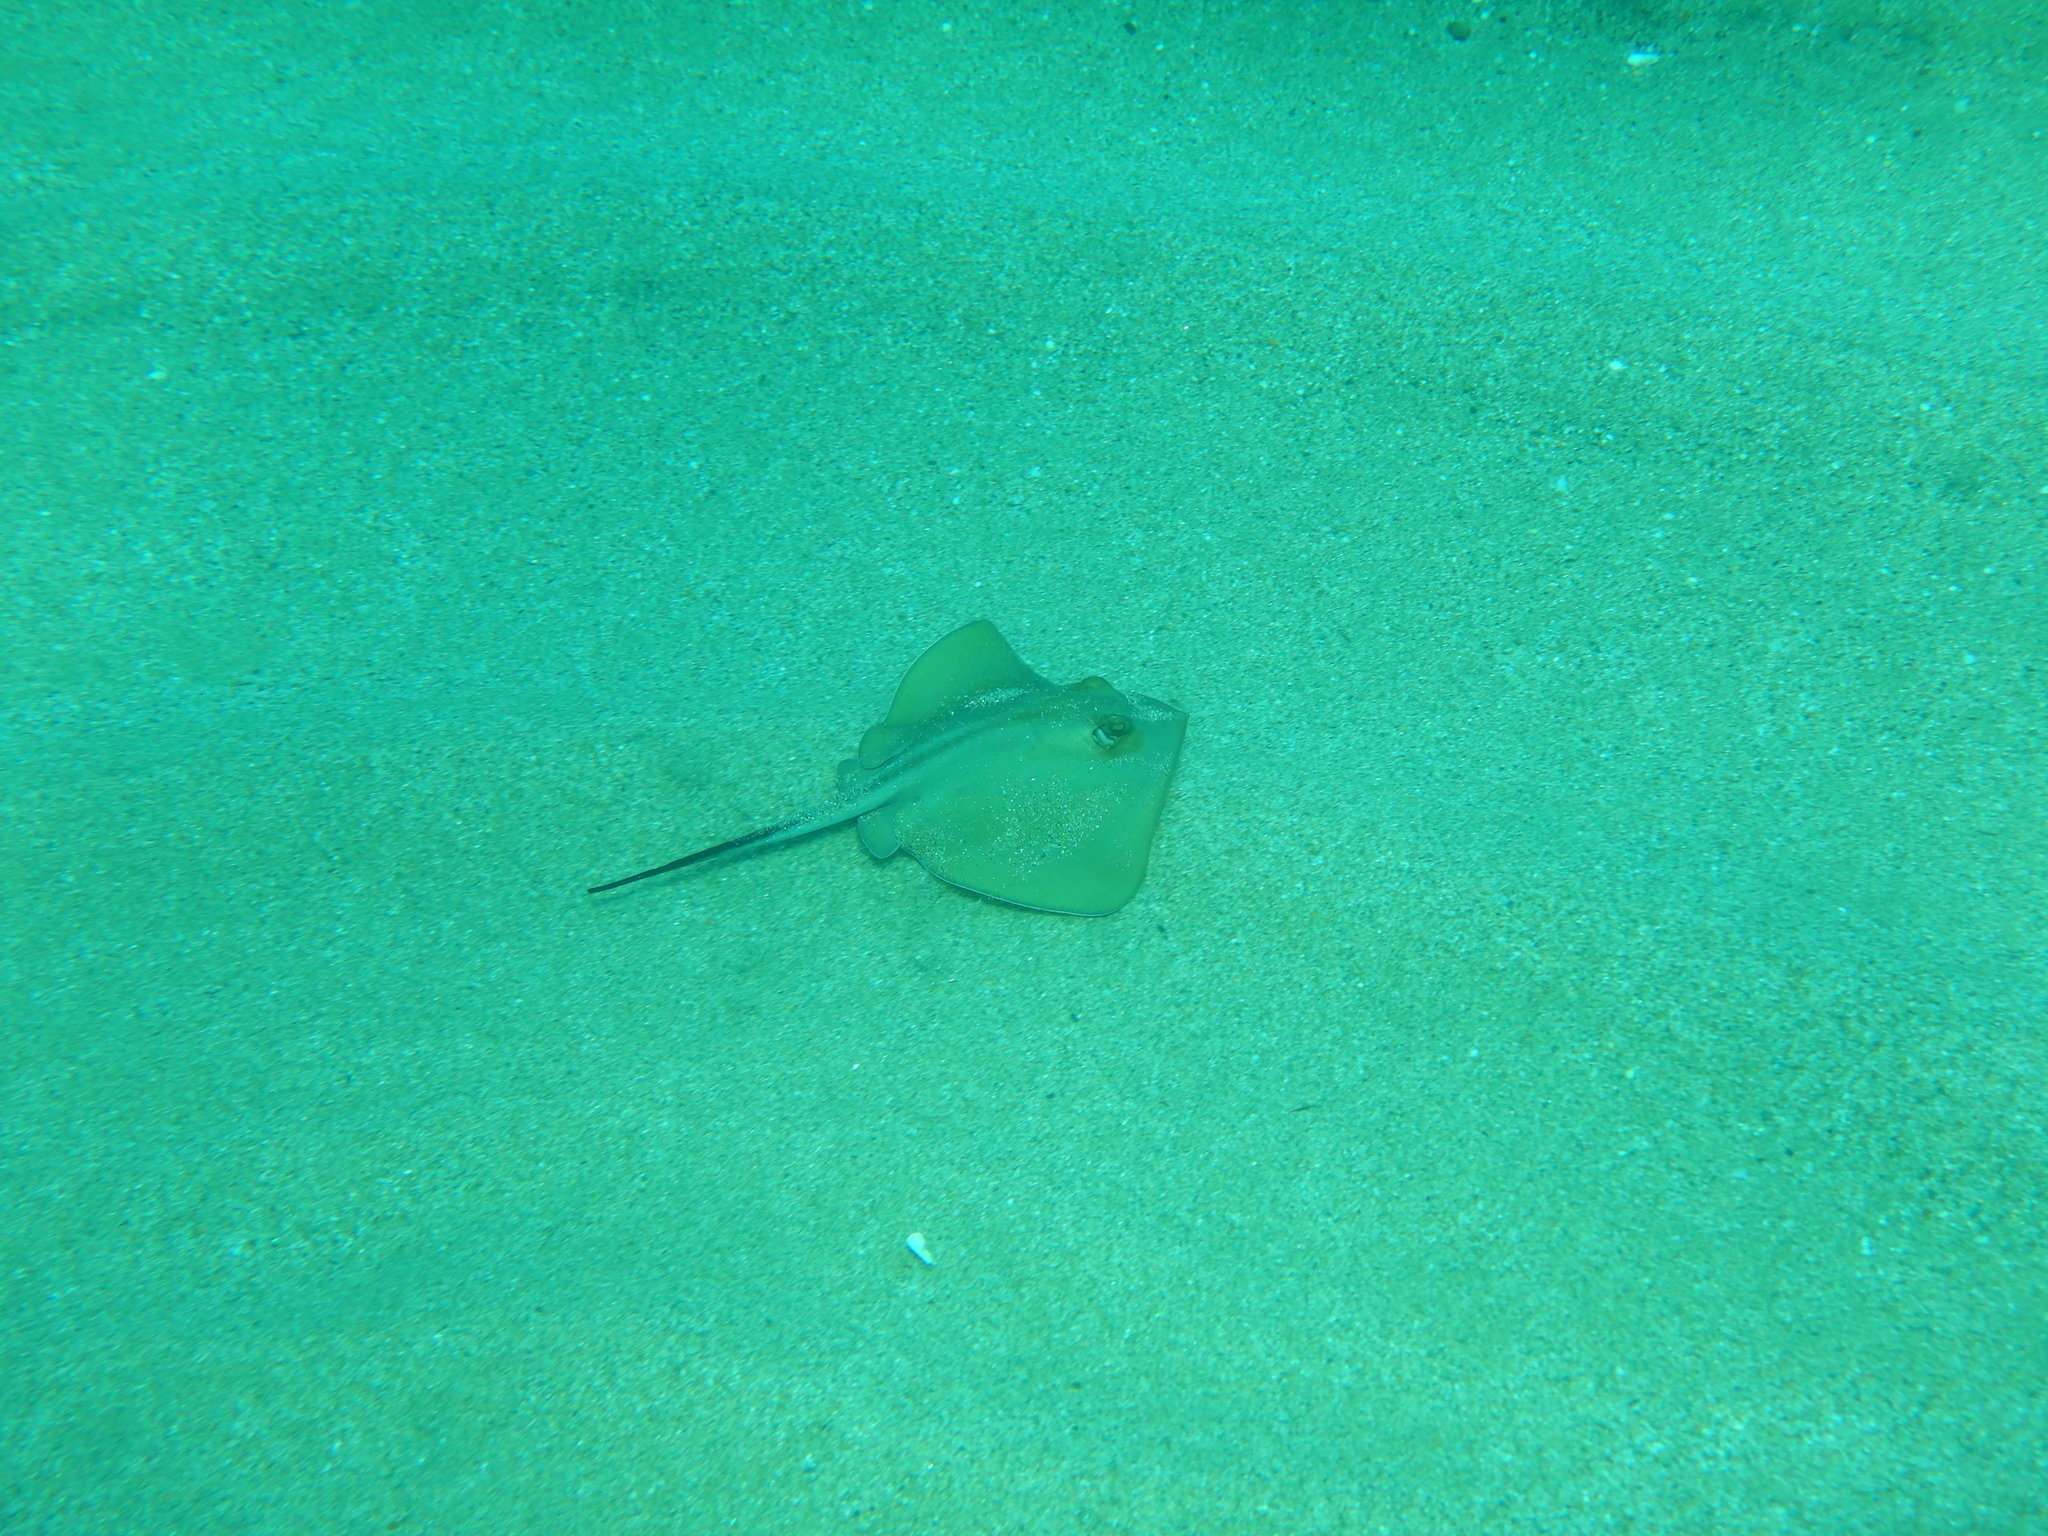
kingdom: Animalia
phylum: Chordata
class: Elasmobranchii
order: Myliobatiformes
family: Dasyatidae
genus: Dasyatis
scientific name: Dasyatis pastinaca
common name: Common stingray
